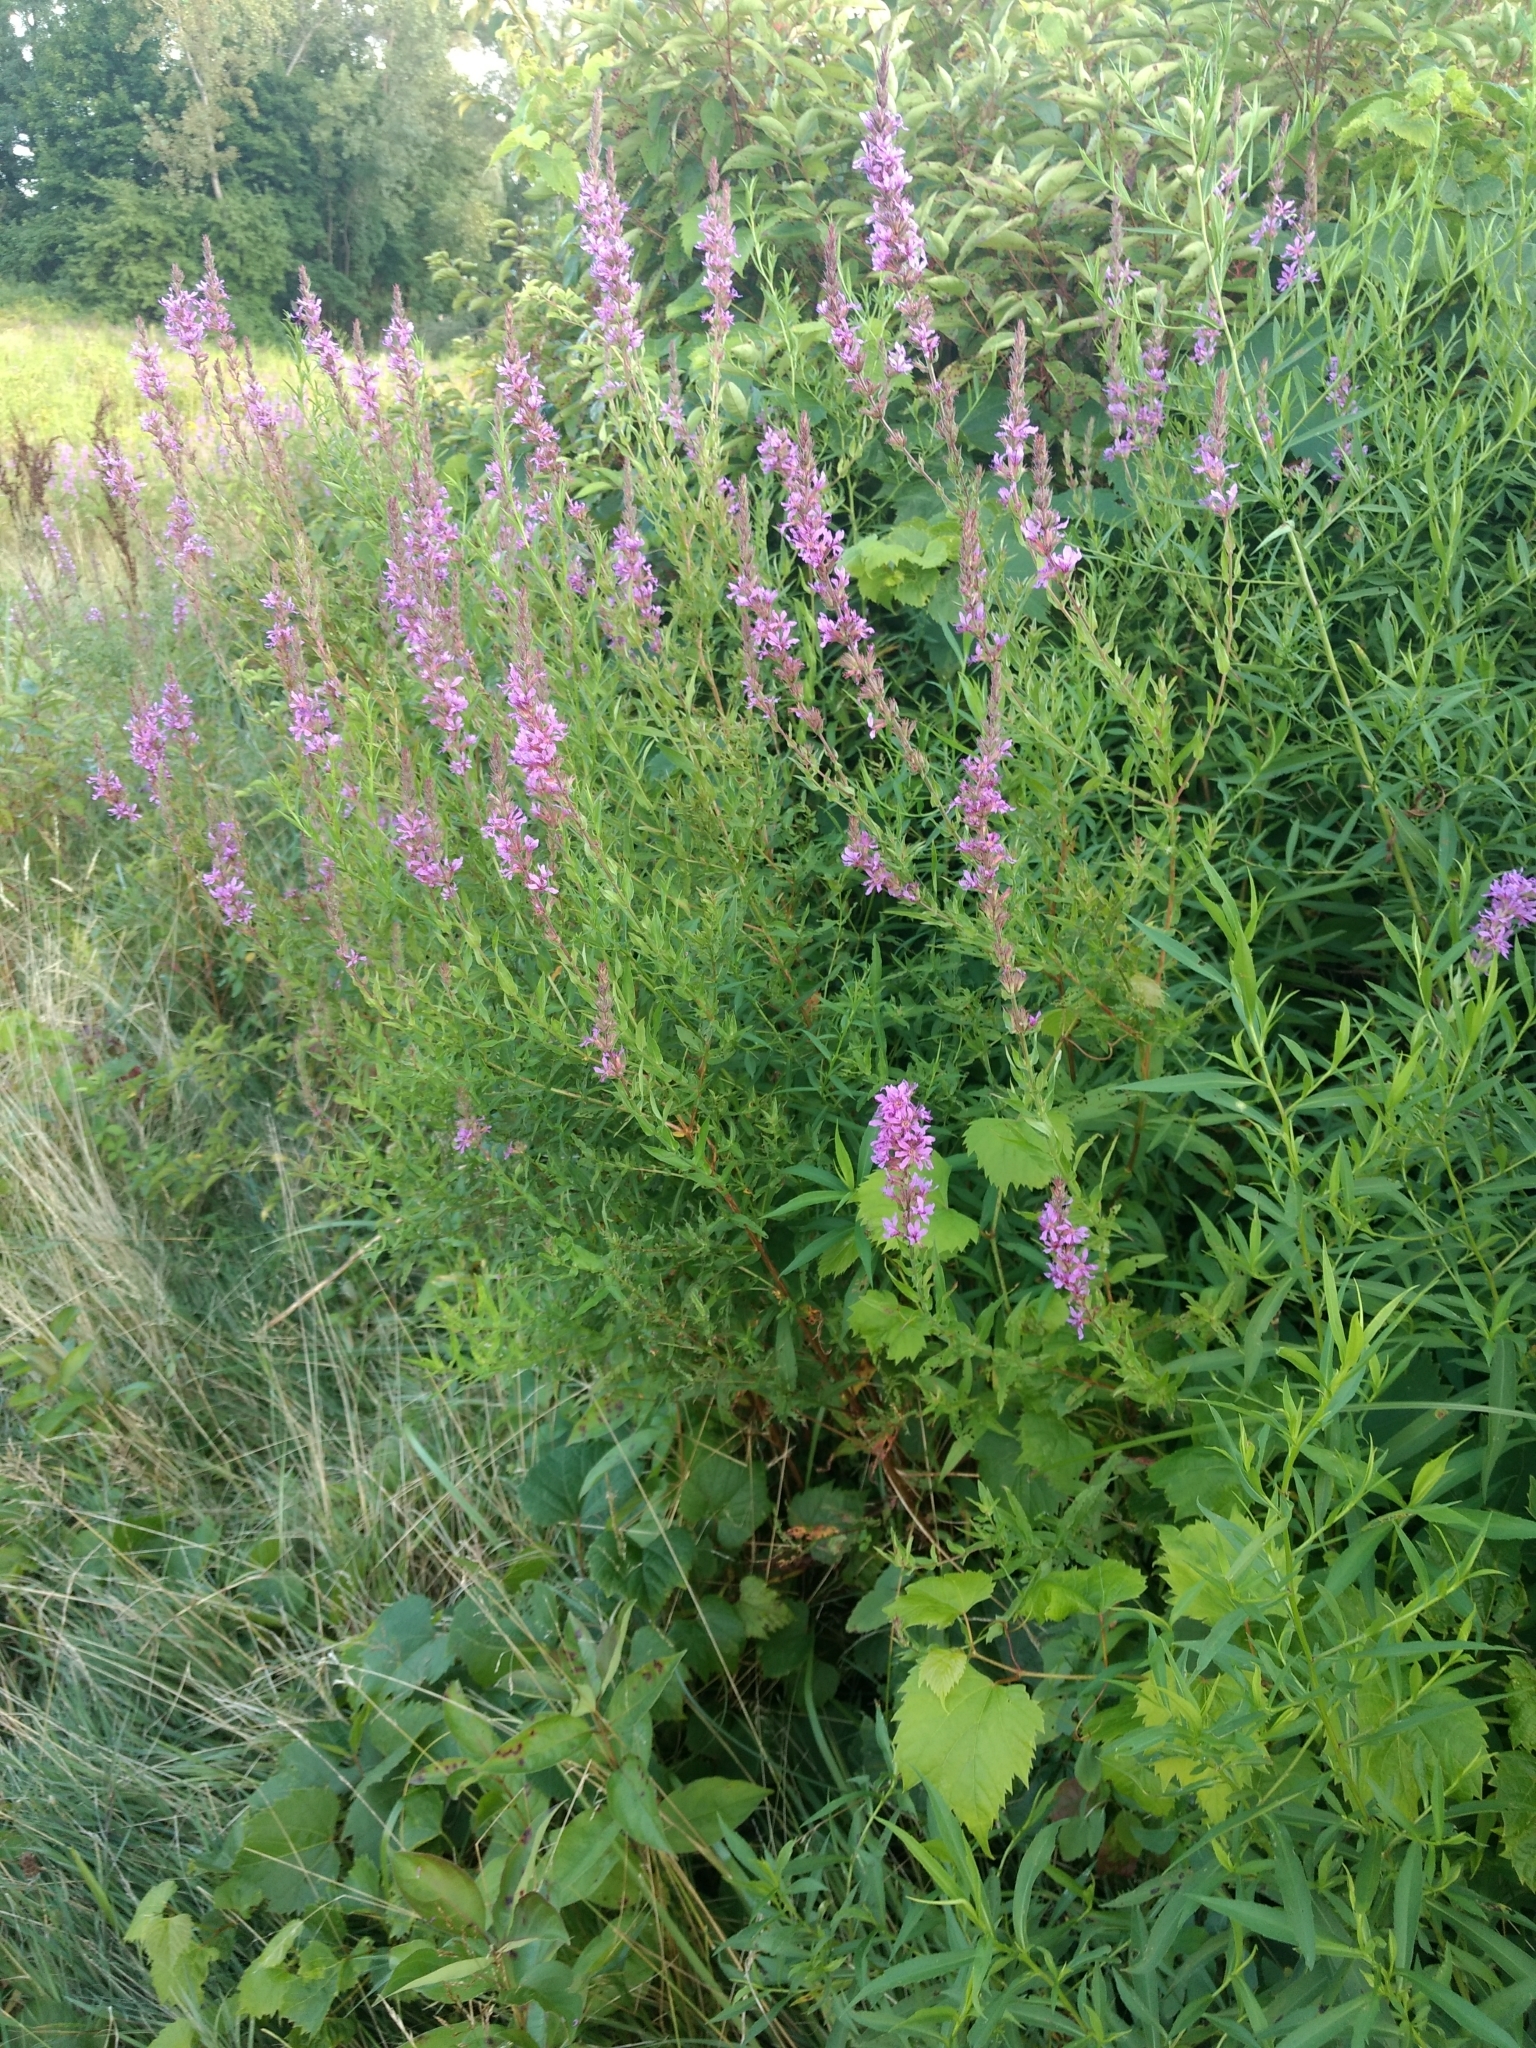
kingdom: Plantae
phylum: Tracheophyta
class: Magnoliopsida
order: Myrtales
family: Lythraceae
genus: Lythrum
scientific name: Lythrum salicaria
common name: Purple loosestrife
